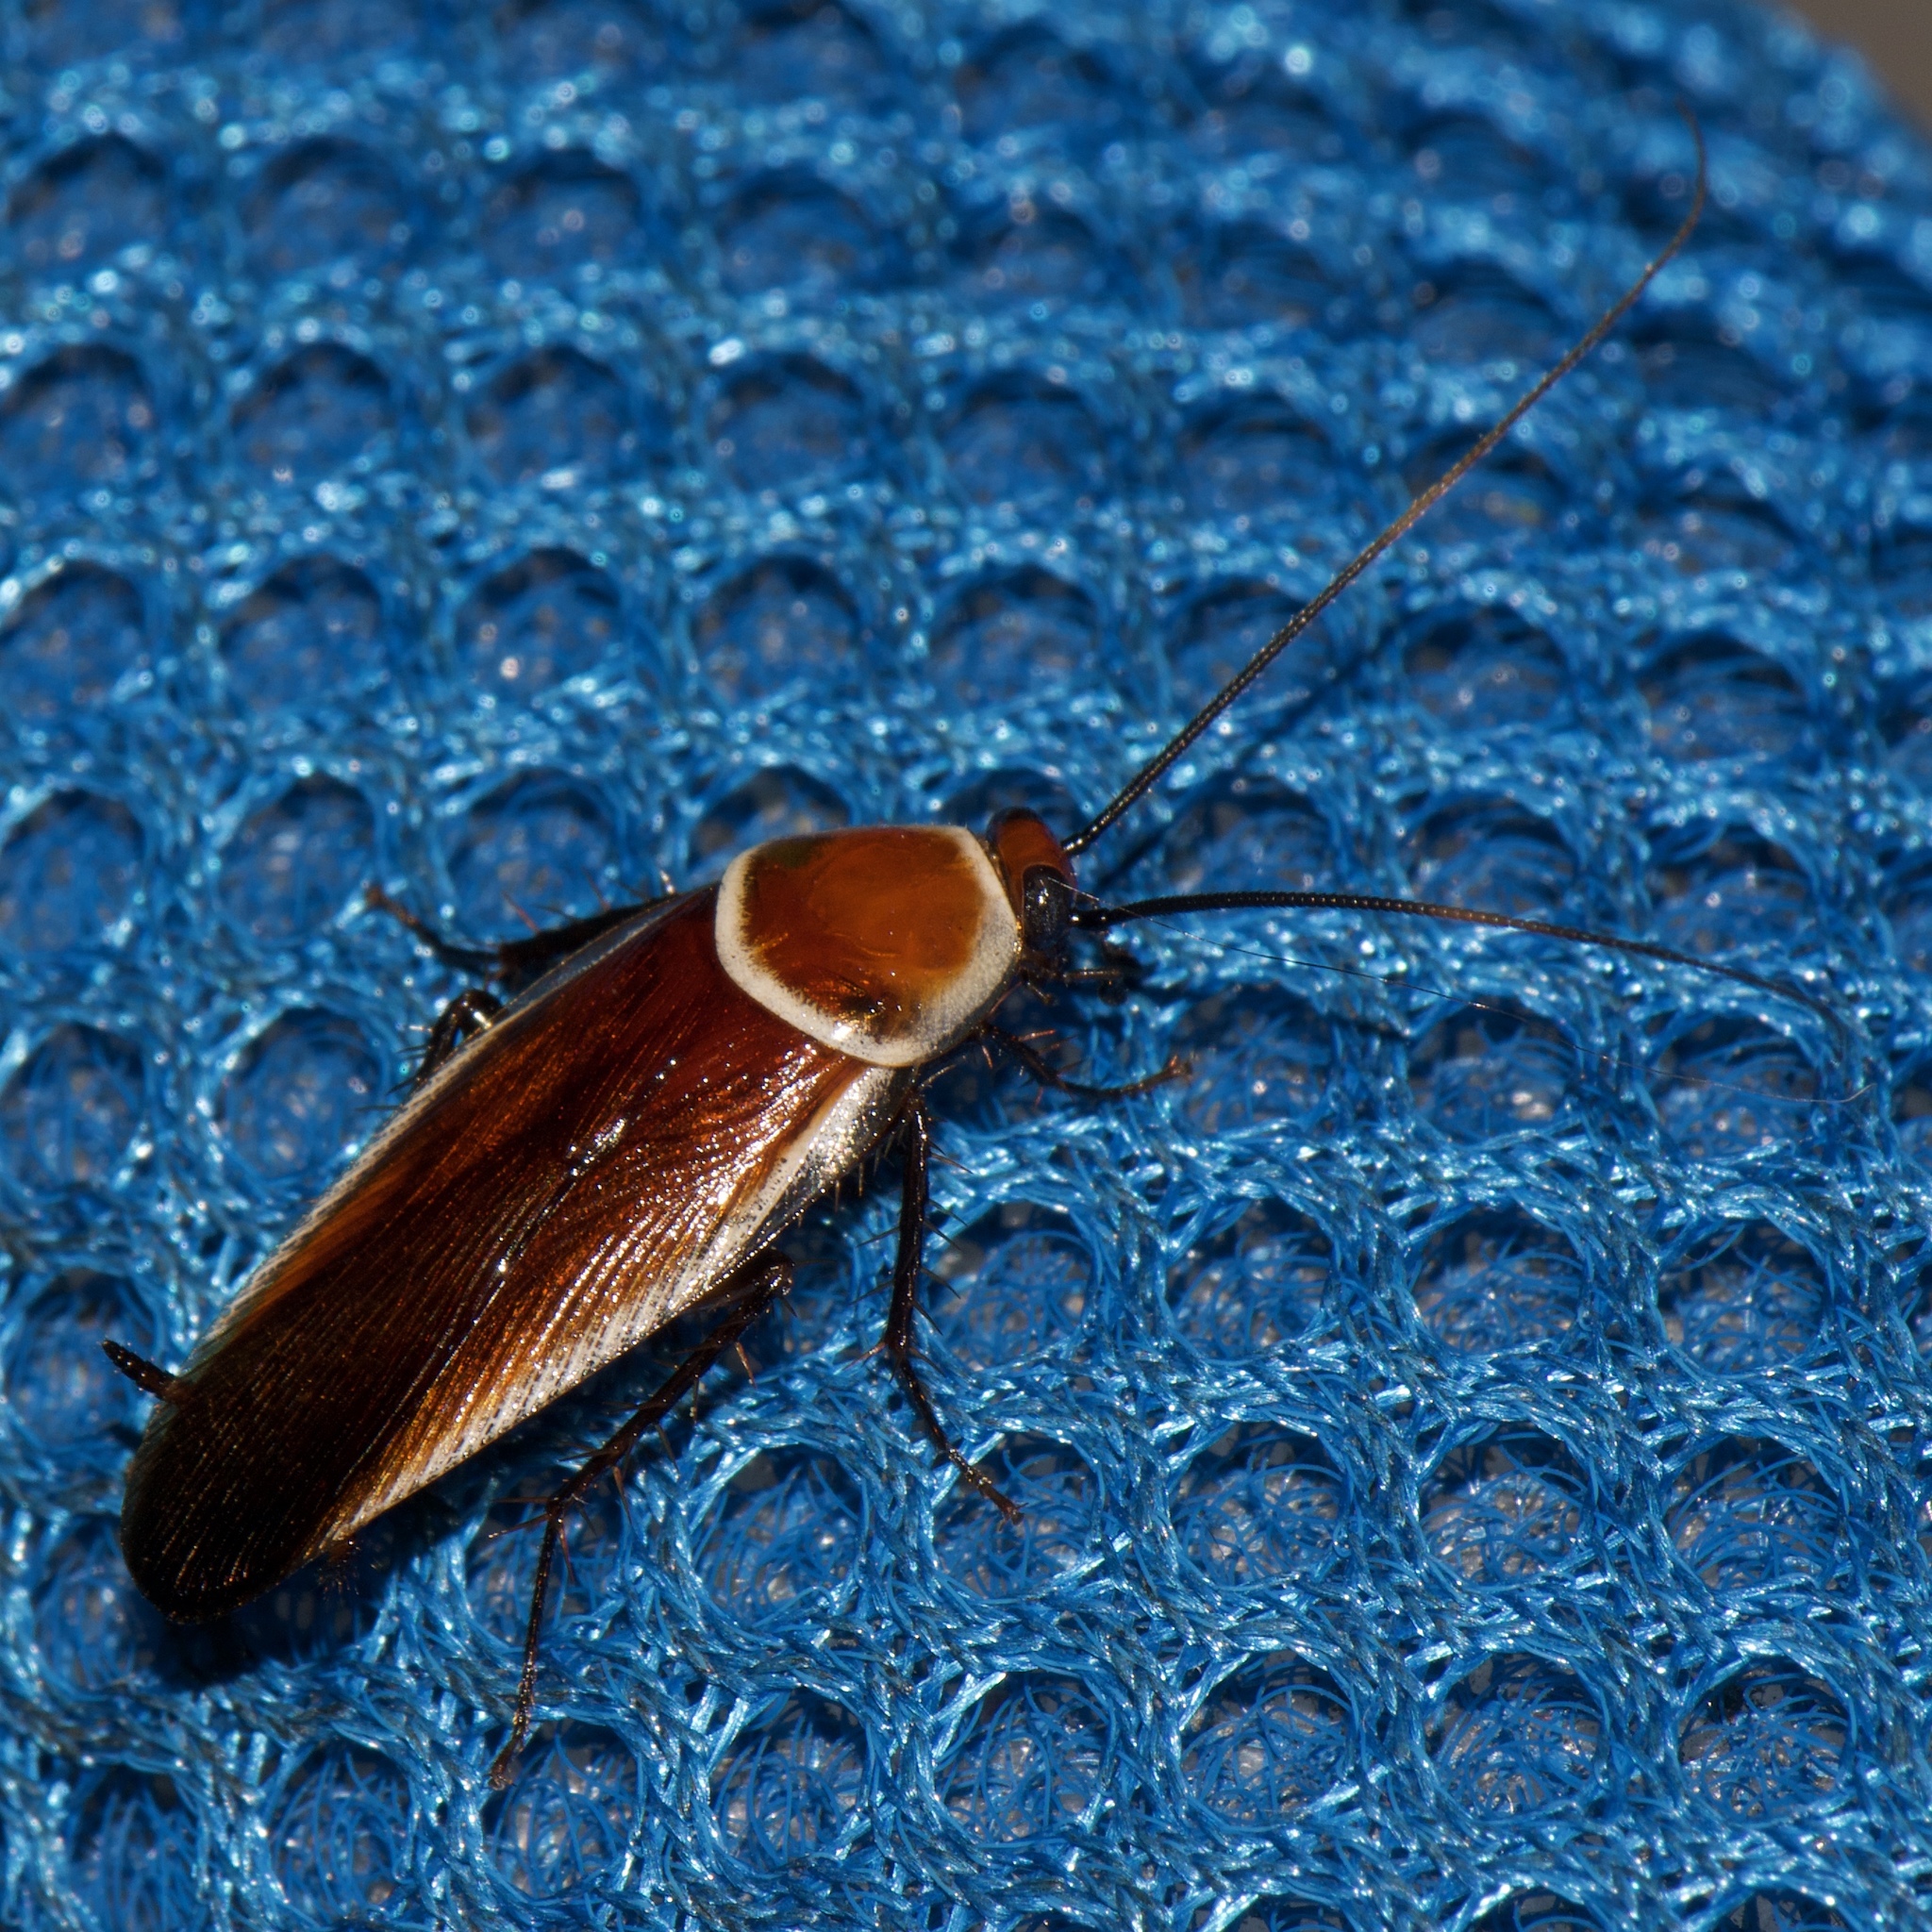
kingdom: Animalia
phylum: Arthropoda
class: Insecta
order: Blattodea
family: Ectobiidae
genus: Pseudomops
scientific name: Pseudomops septentrionalis
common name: Pale-bordered field cockroach
